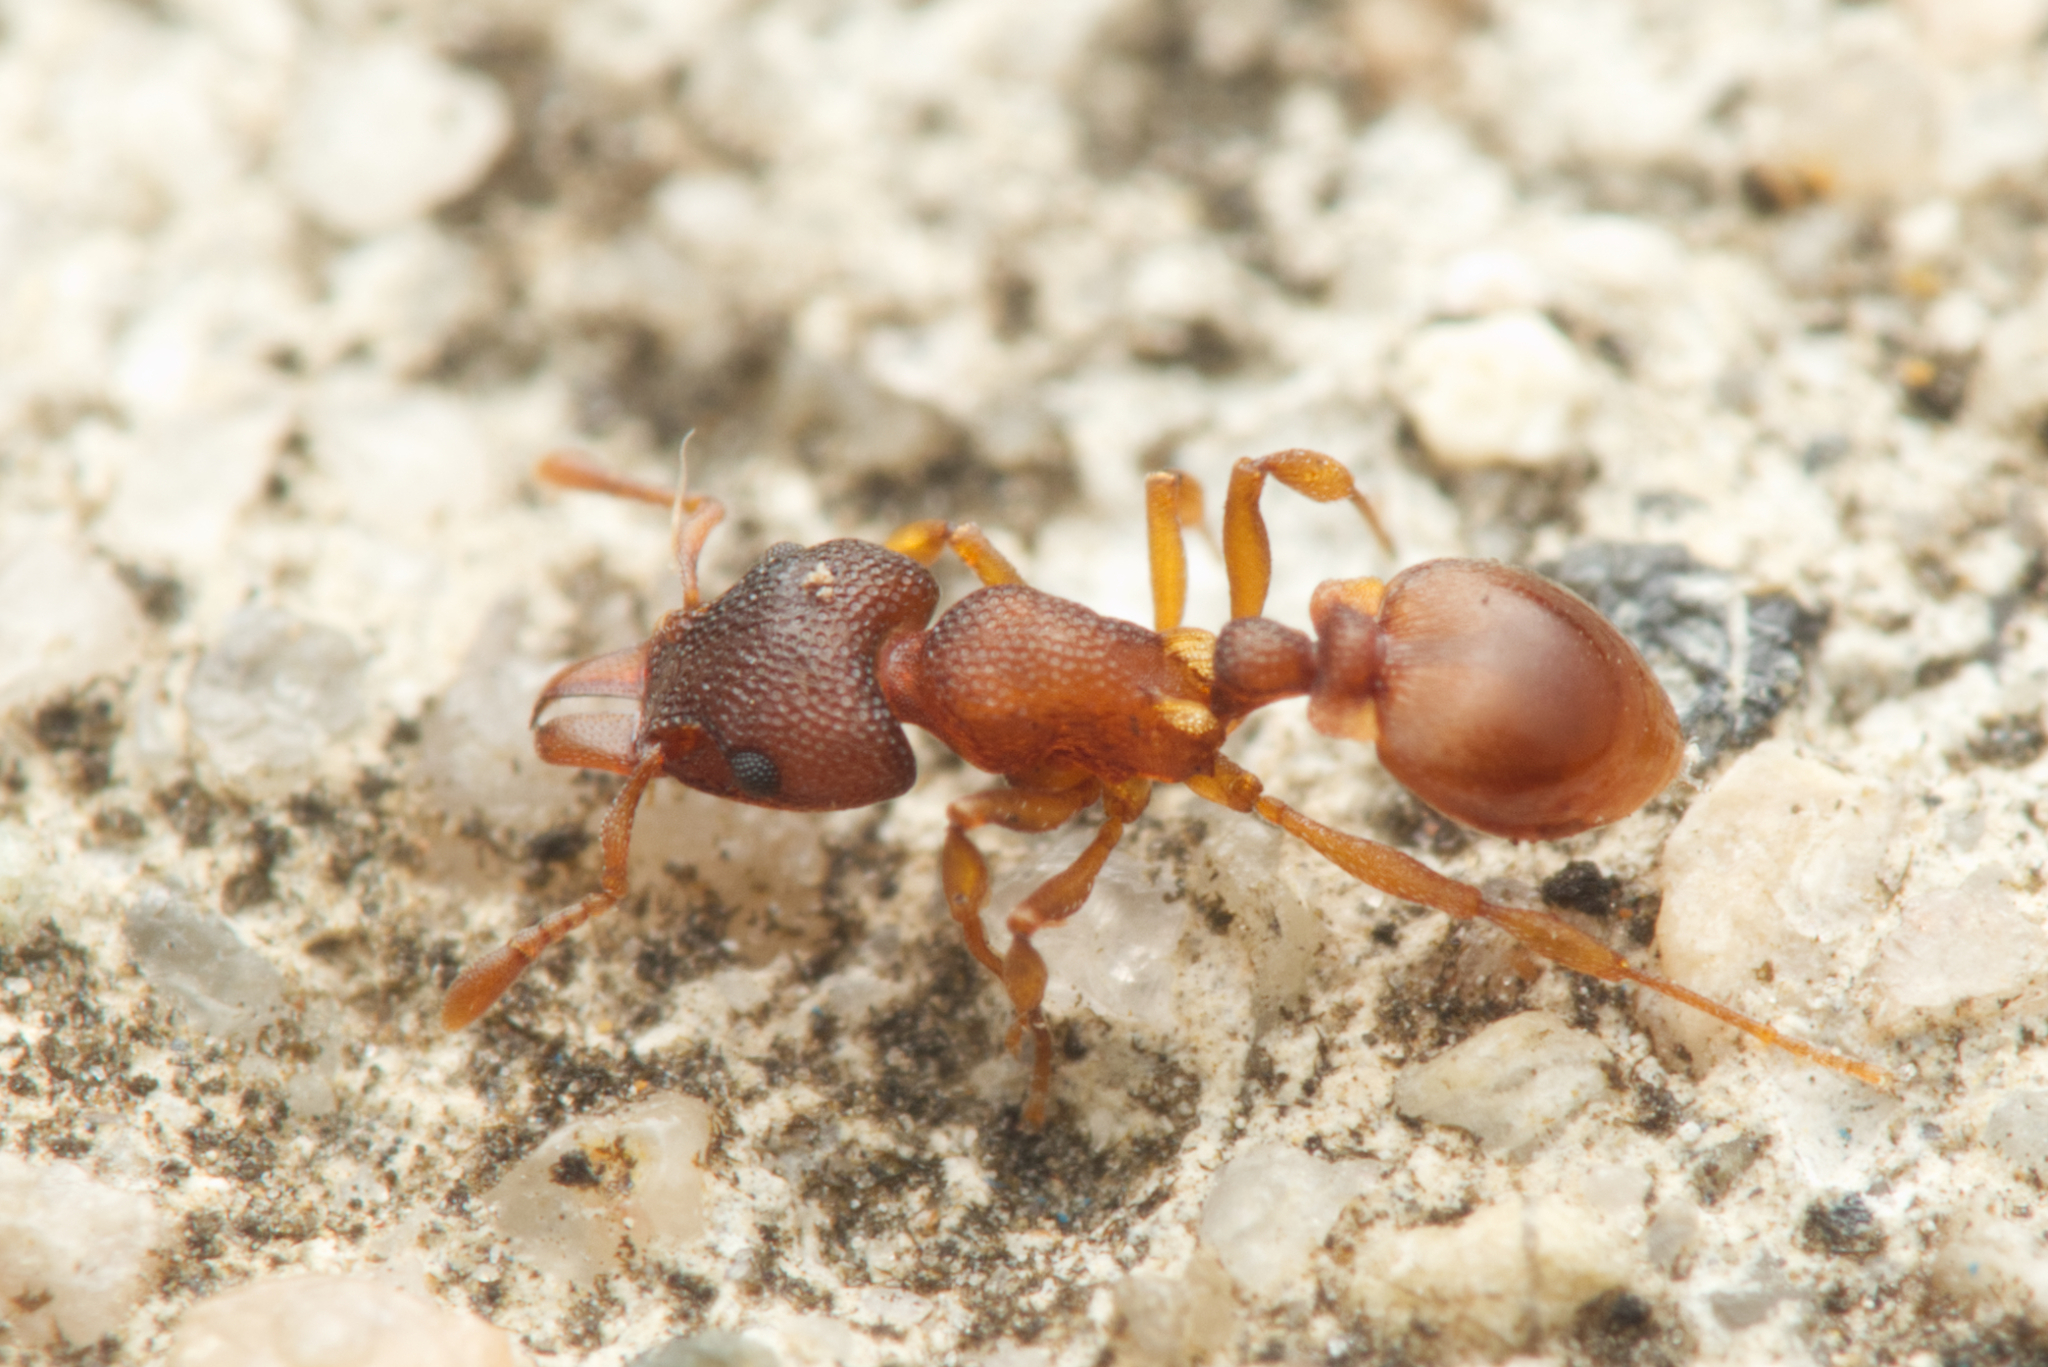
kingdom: Animalia
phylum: Arthropoda
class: Insecta
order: Hymenoptera
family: Formicidae
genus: Mesostruma
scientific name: Mesostruma turneri
